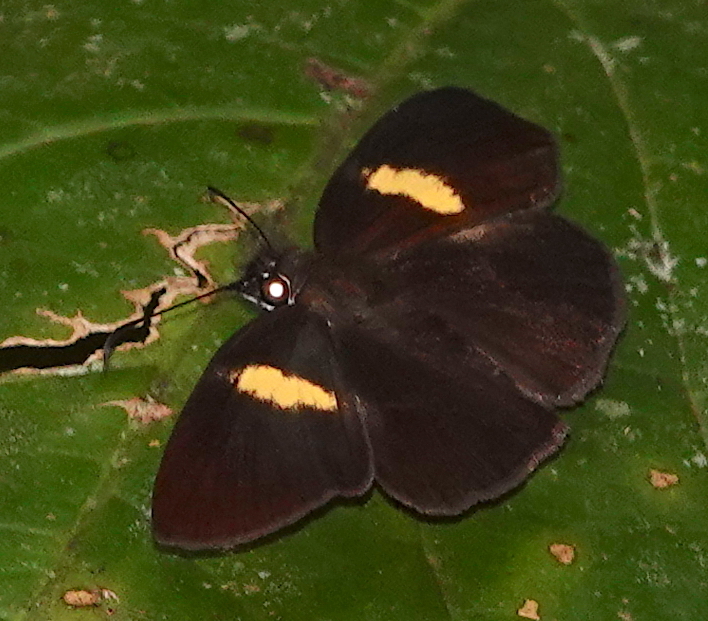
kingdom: Animalia
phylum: Arthropoda
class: Insecta
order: Lepidoptera
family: Hesperiidae
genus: Potamanaxas
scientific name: Potamanaxas flavofasciata
